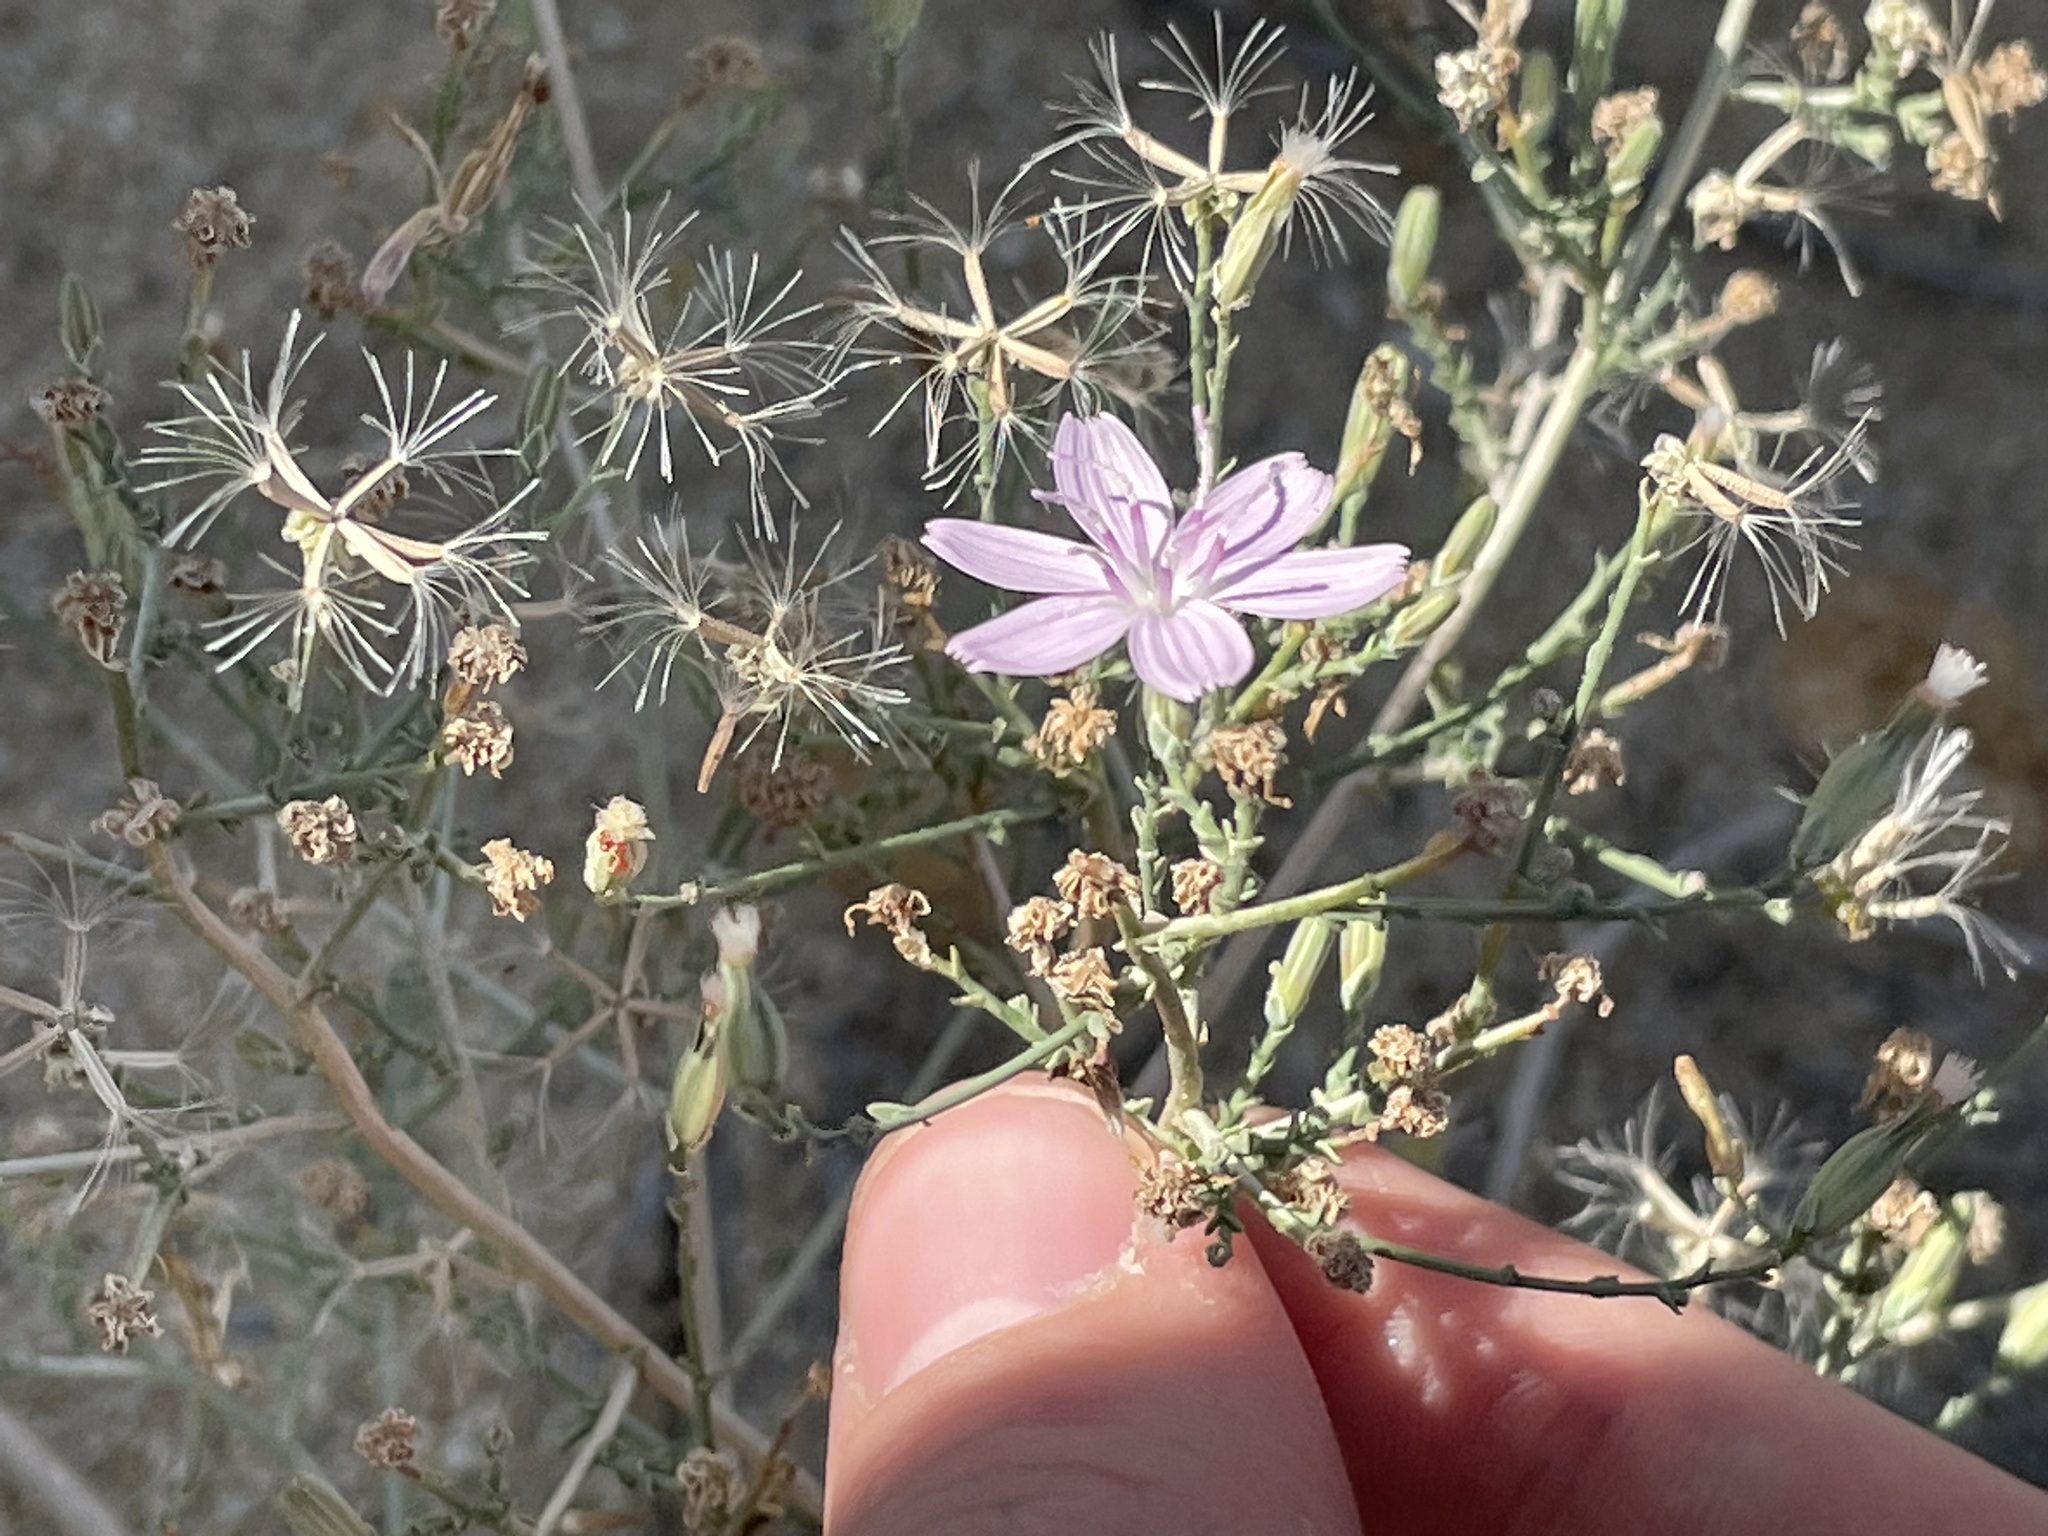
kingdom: Plantae
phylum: Tracheophyta
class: Magnoliopsida
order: Asterales
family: Asteraceae
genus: Stephanomeria
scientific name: Stephanomeria exigua
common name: Small wirelettuce
